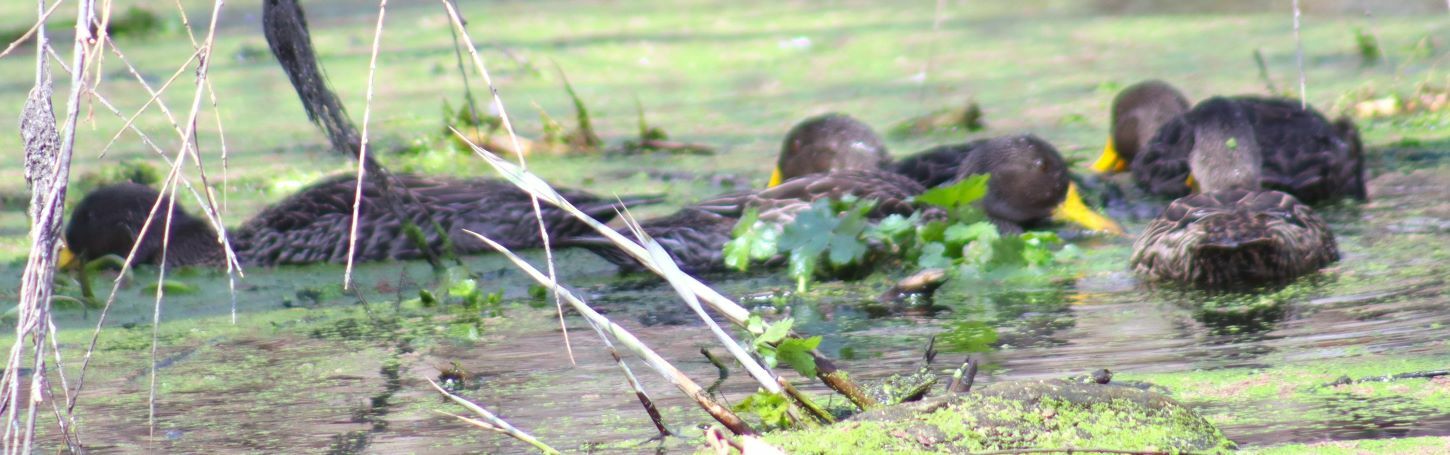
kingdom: Animalia
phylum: Chordata
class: Aves
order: Anseriformes
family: Anatidae
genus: Anas
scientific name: Anas undulata
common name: Yellow-billed duck
